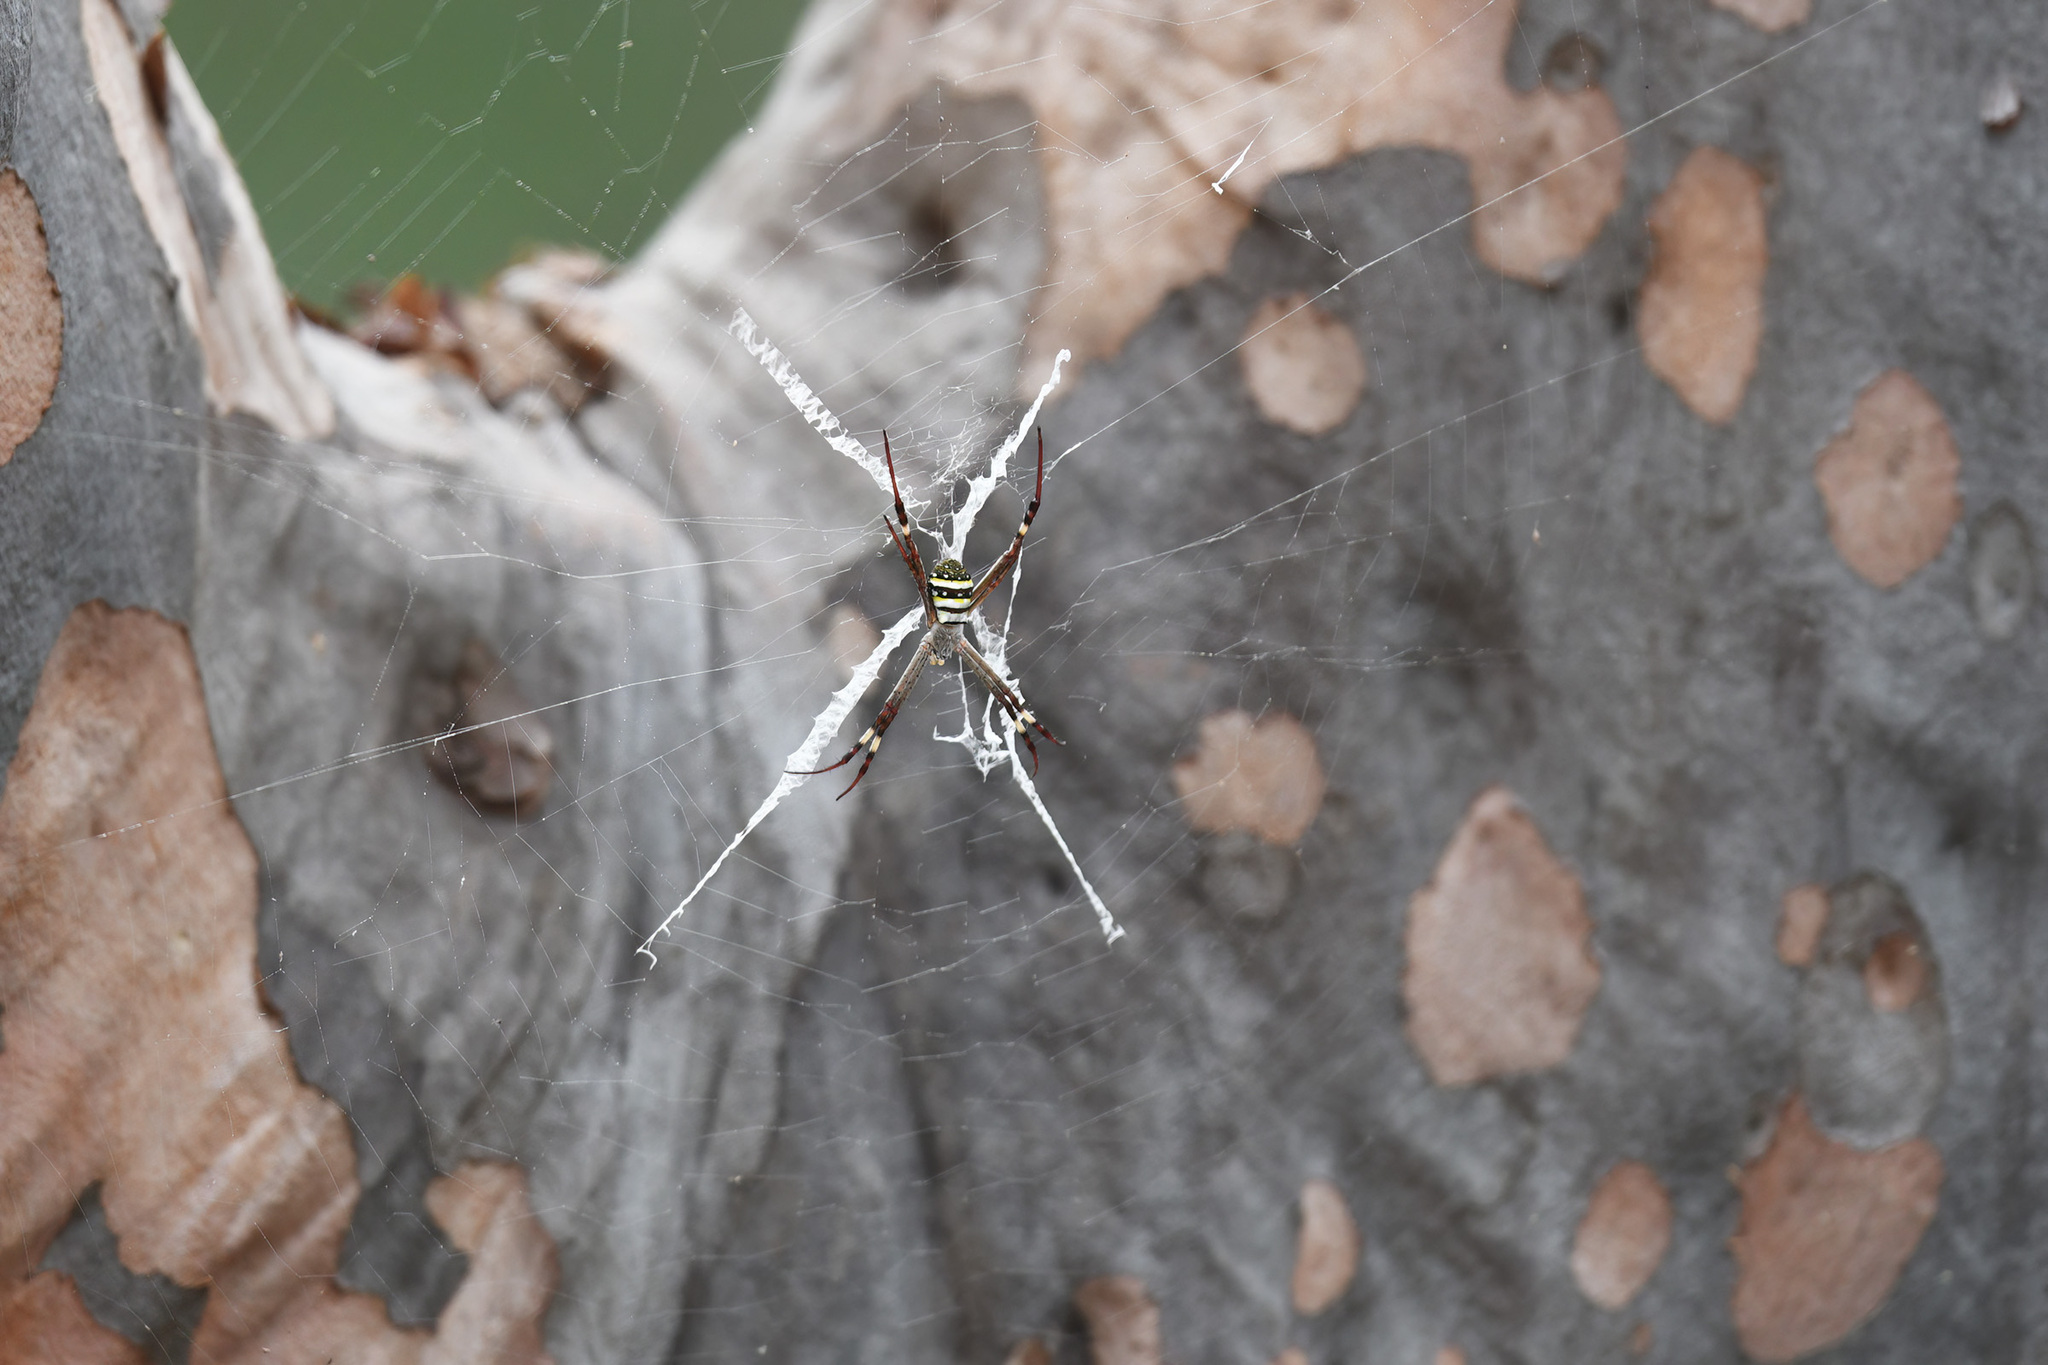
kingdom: Animalia
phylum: Arthropoda
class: Arachnida
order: Araneae
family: Araneidae
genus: Argiope
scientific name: Argiope keyserlingi
